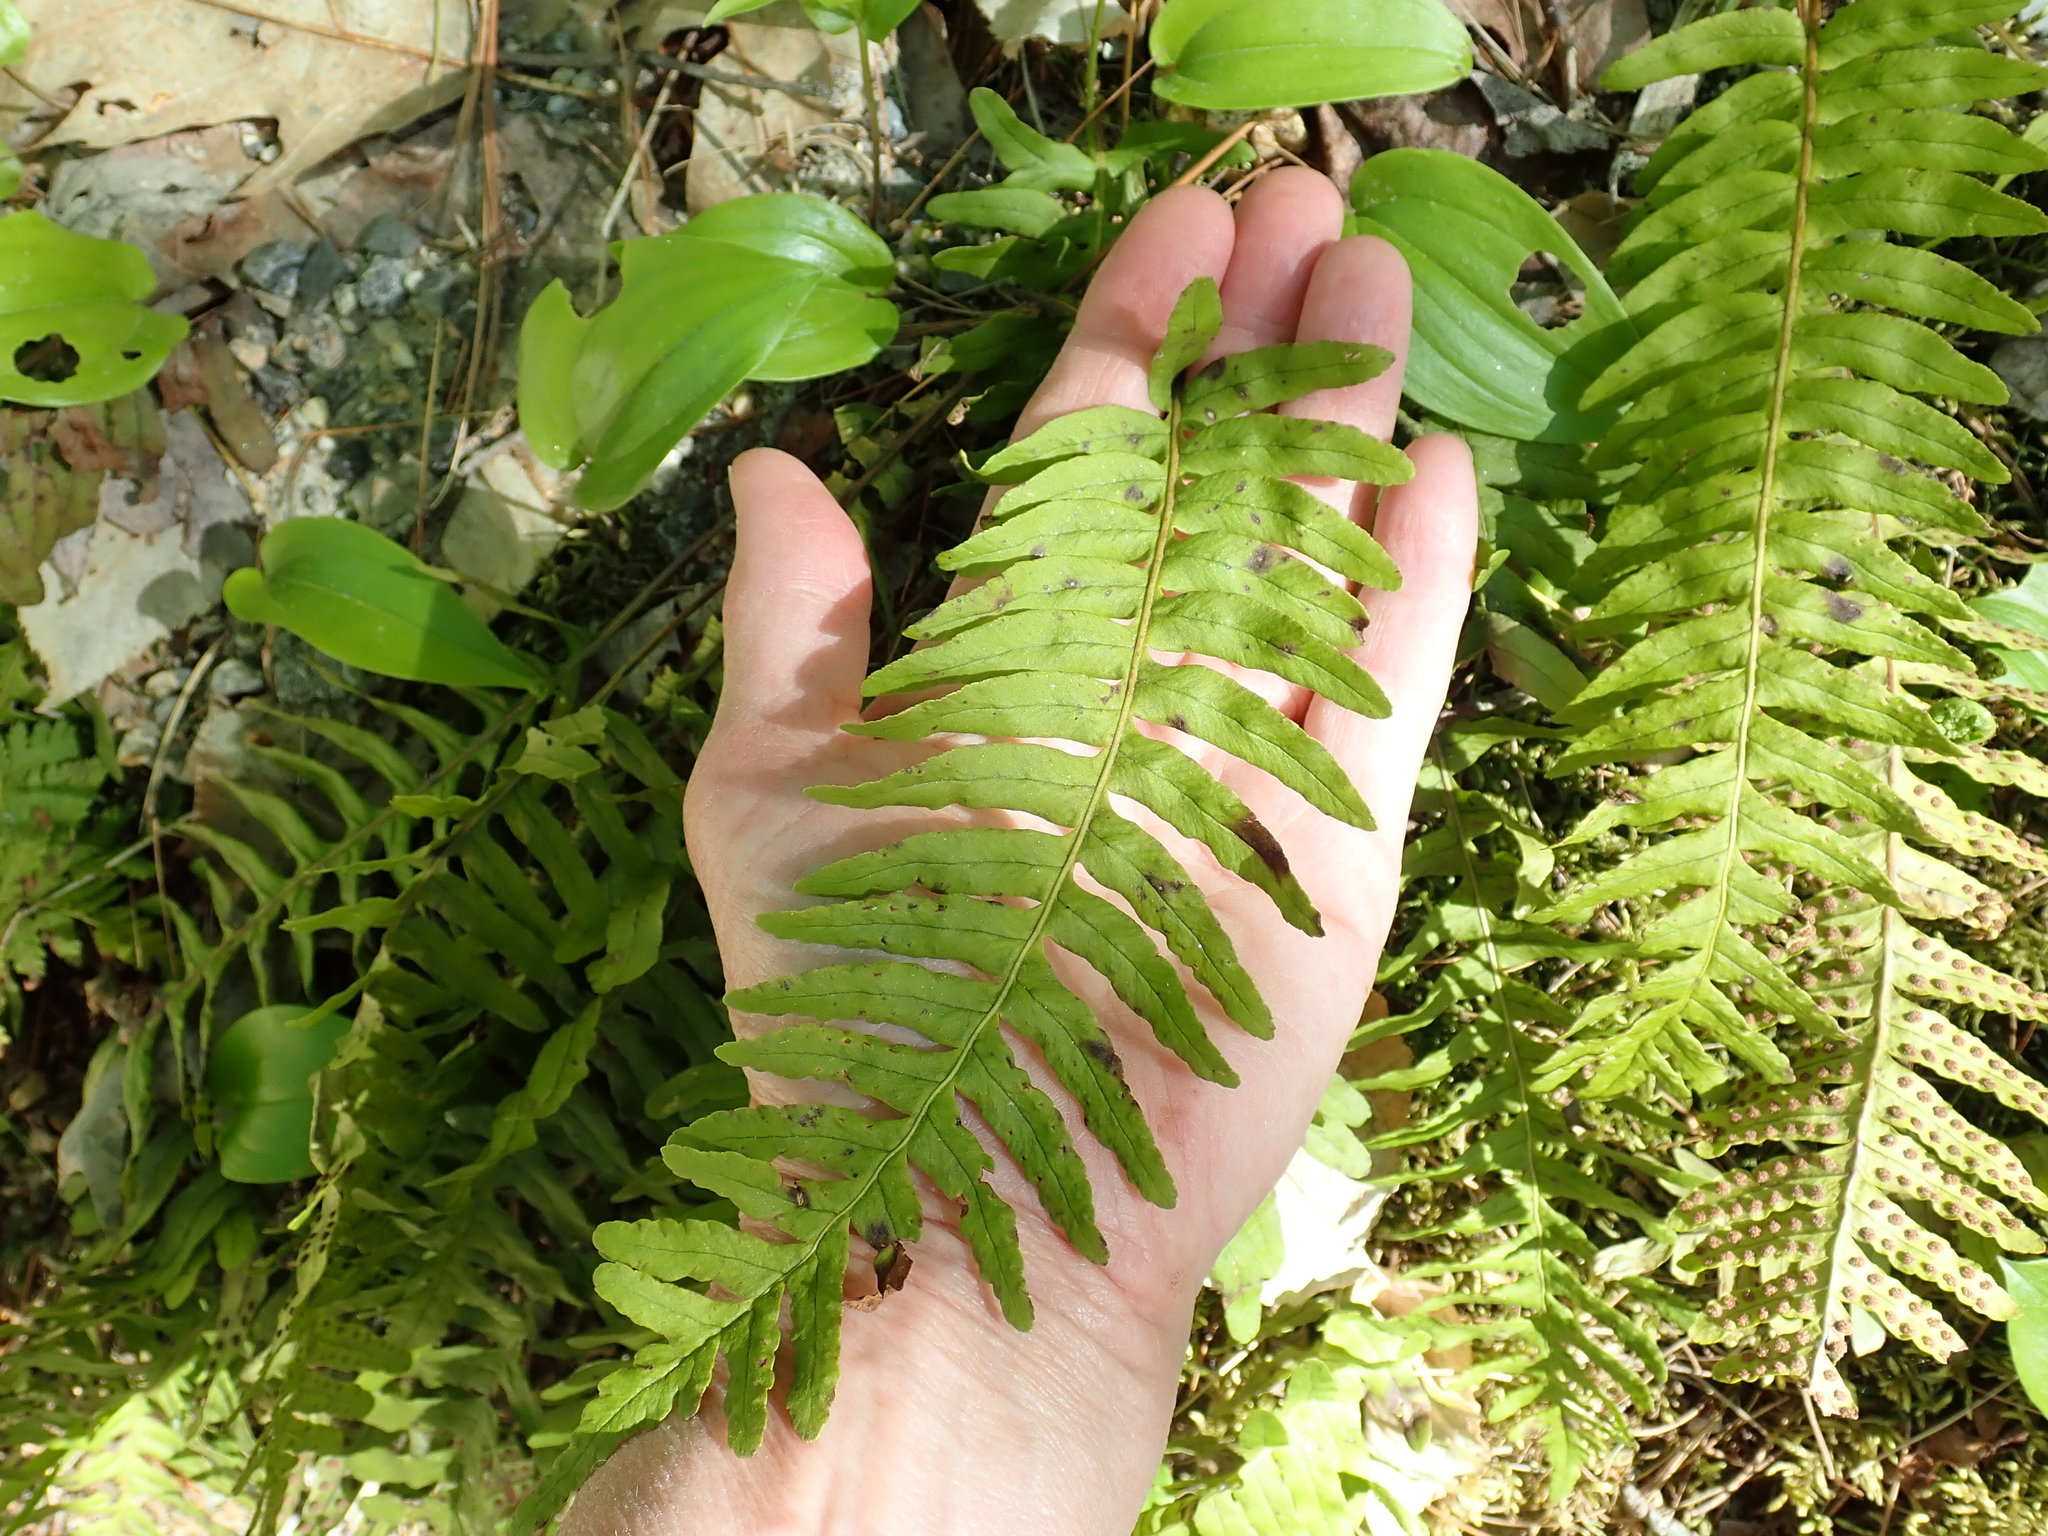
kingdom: Plantae
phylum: Tracheophyta
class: Polypodiopsida
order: Polypodiales
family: Polypodiaceae
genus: Polypodium
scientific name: Polypodium
